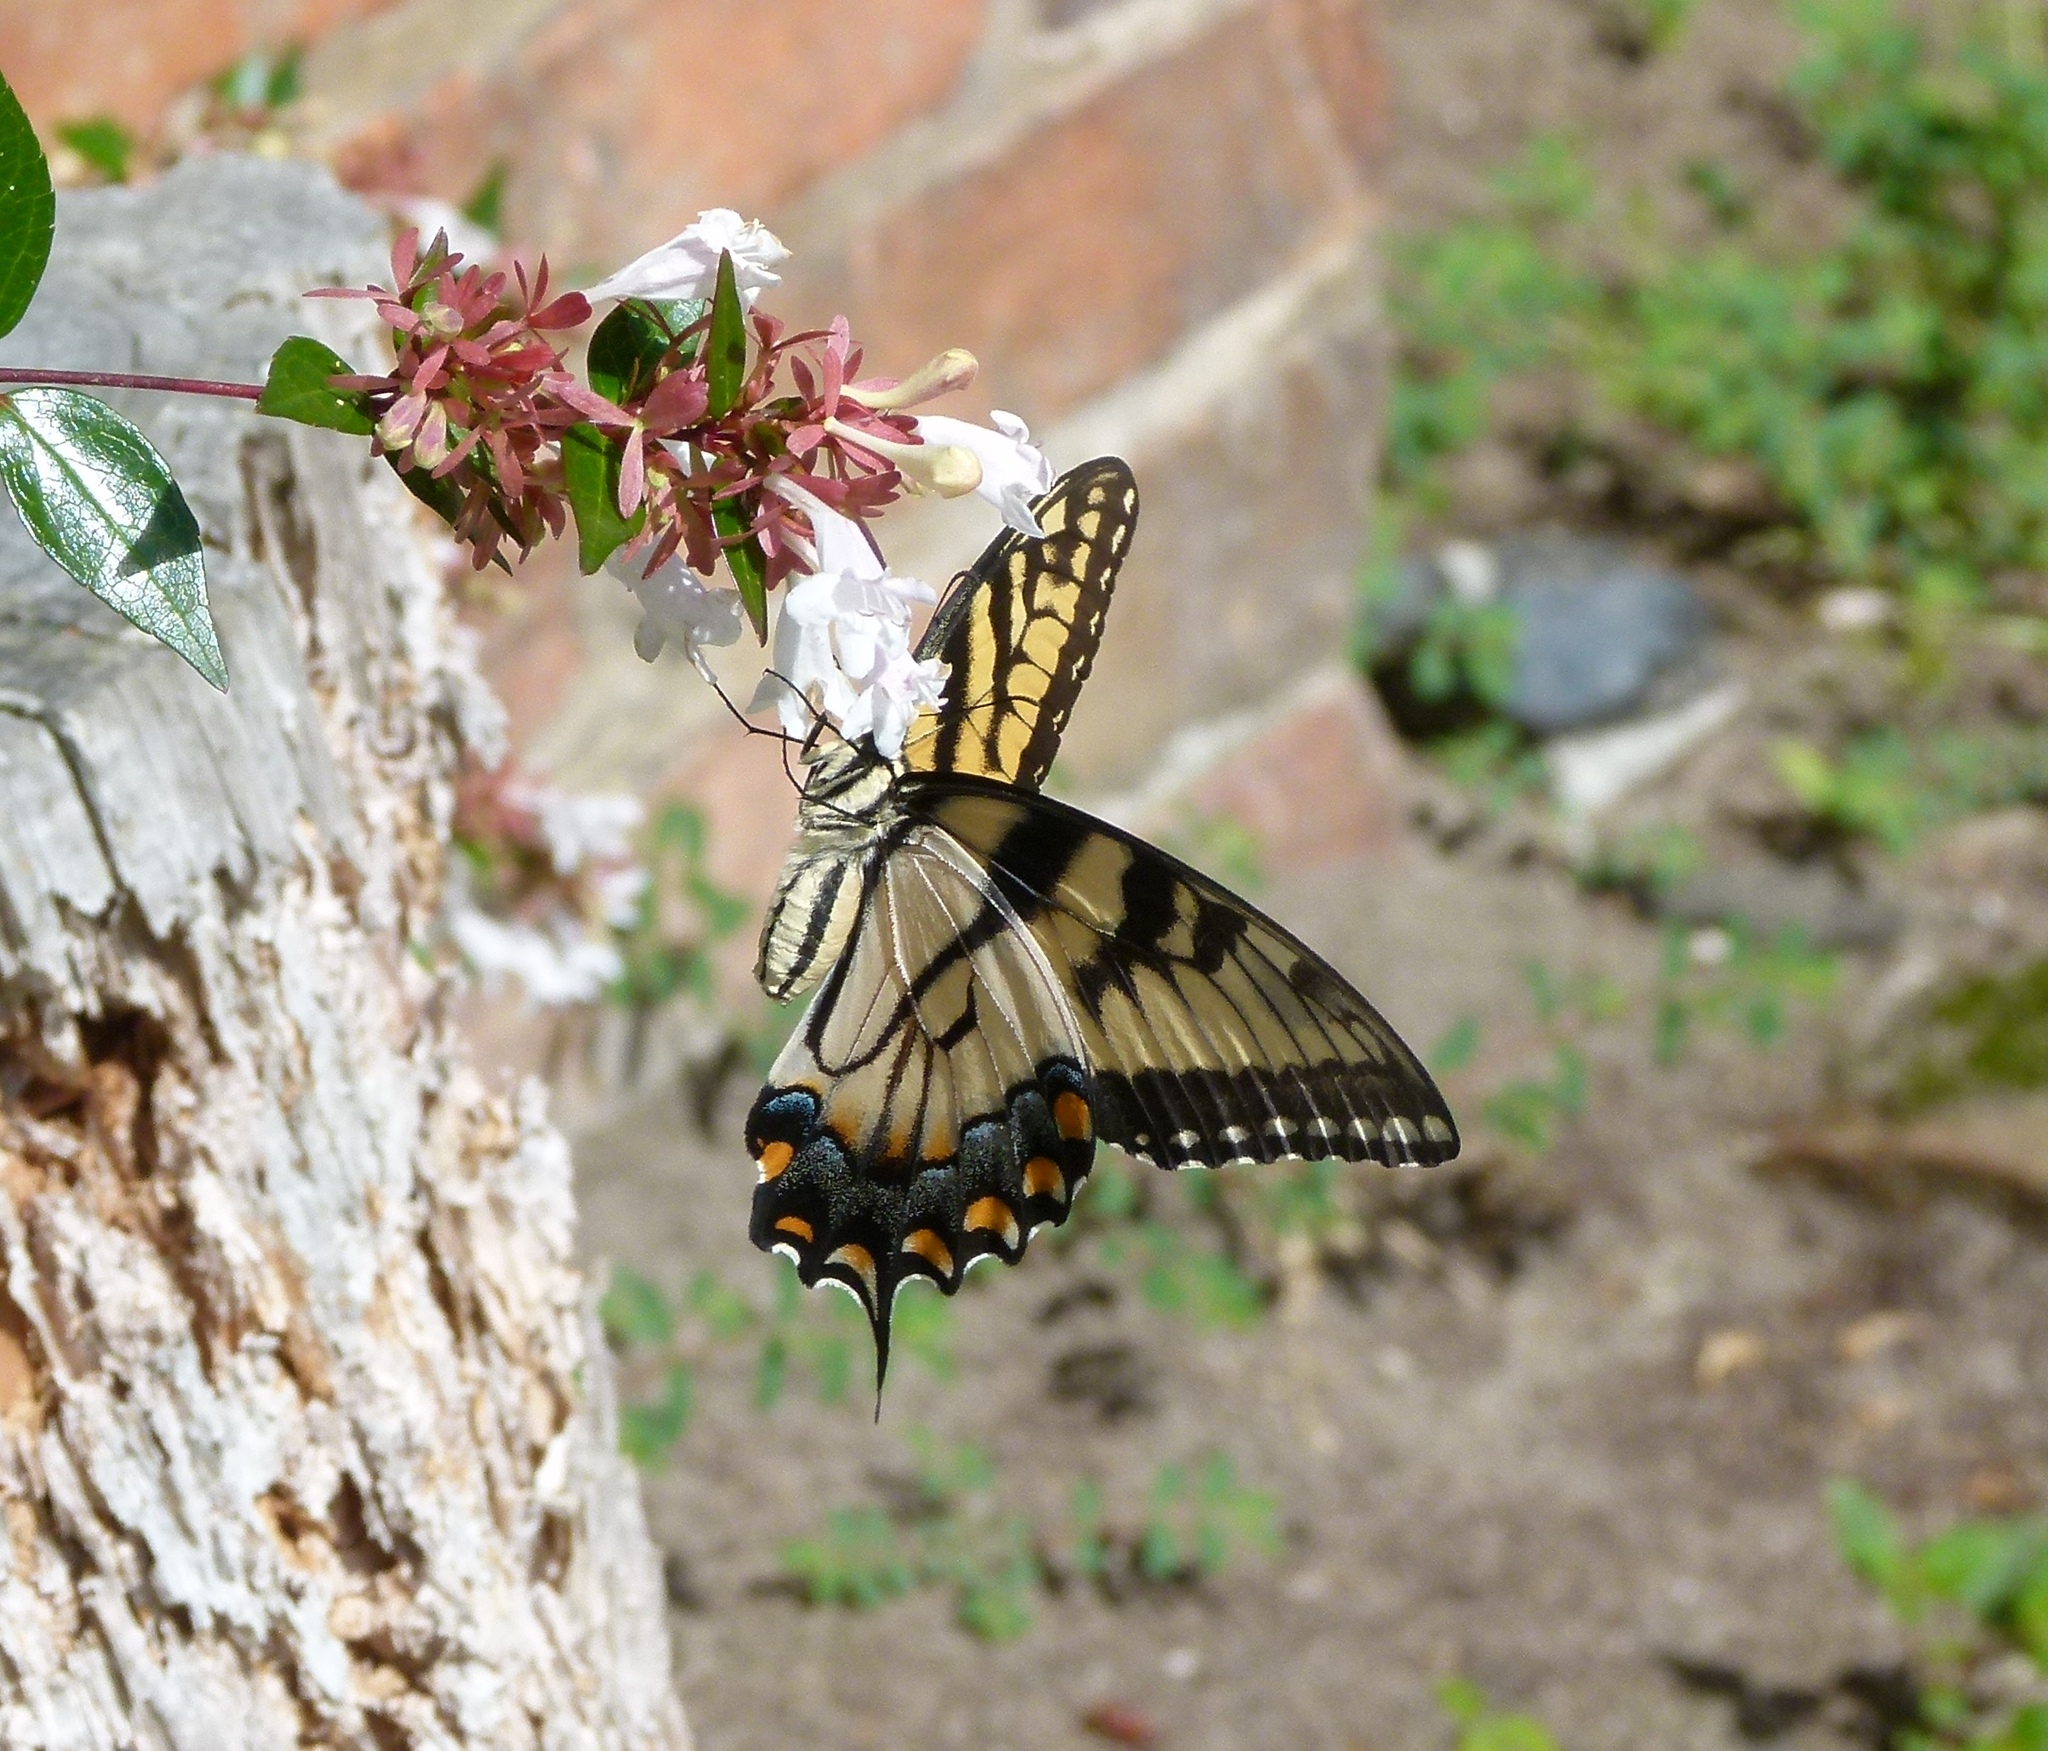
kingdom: Animalia
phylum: Arthropoda
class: Insecta
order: Lepidoptera
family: Papilionidae
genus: Papilio
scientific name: Papilio glaucus
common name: Tiger swallowtail
